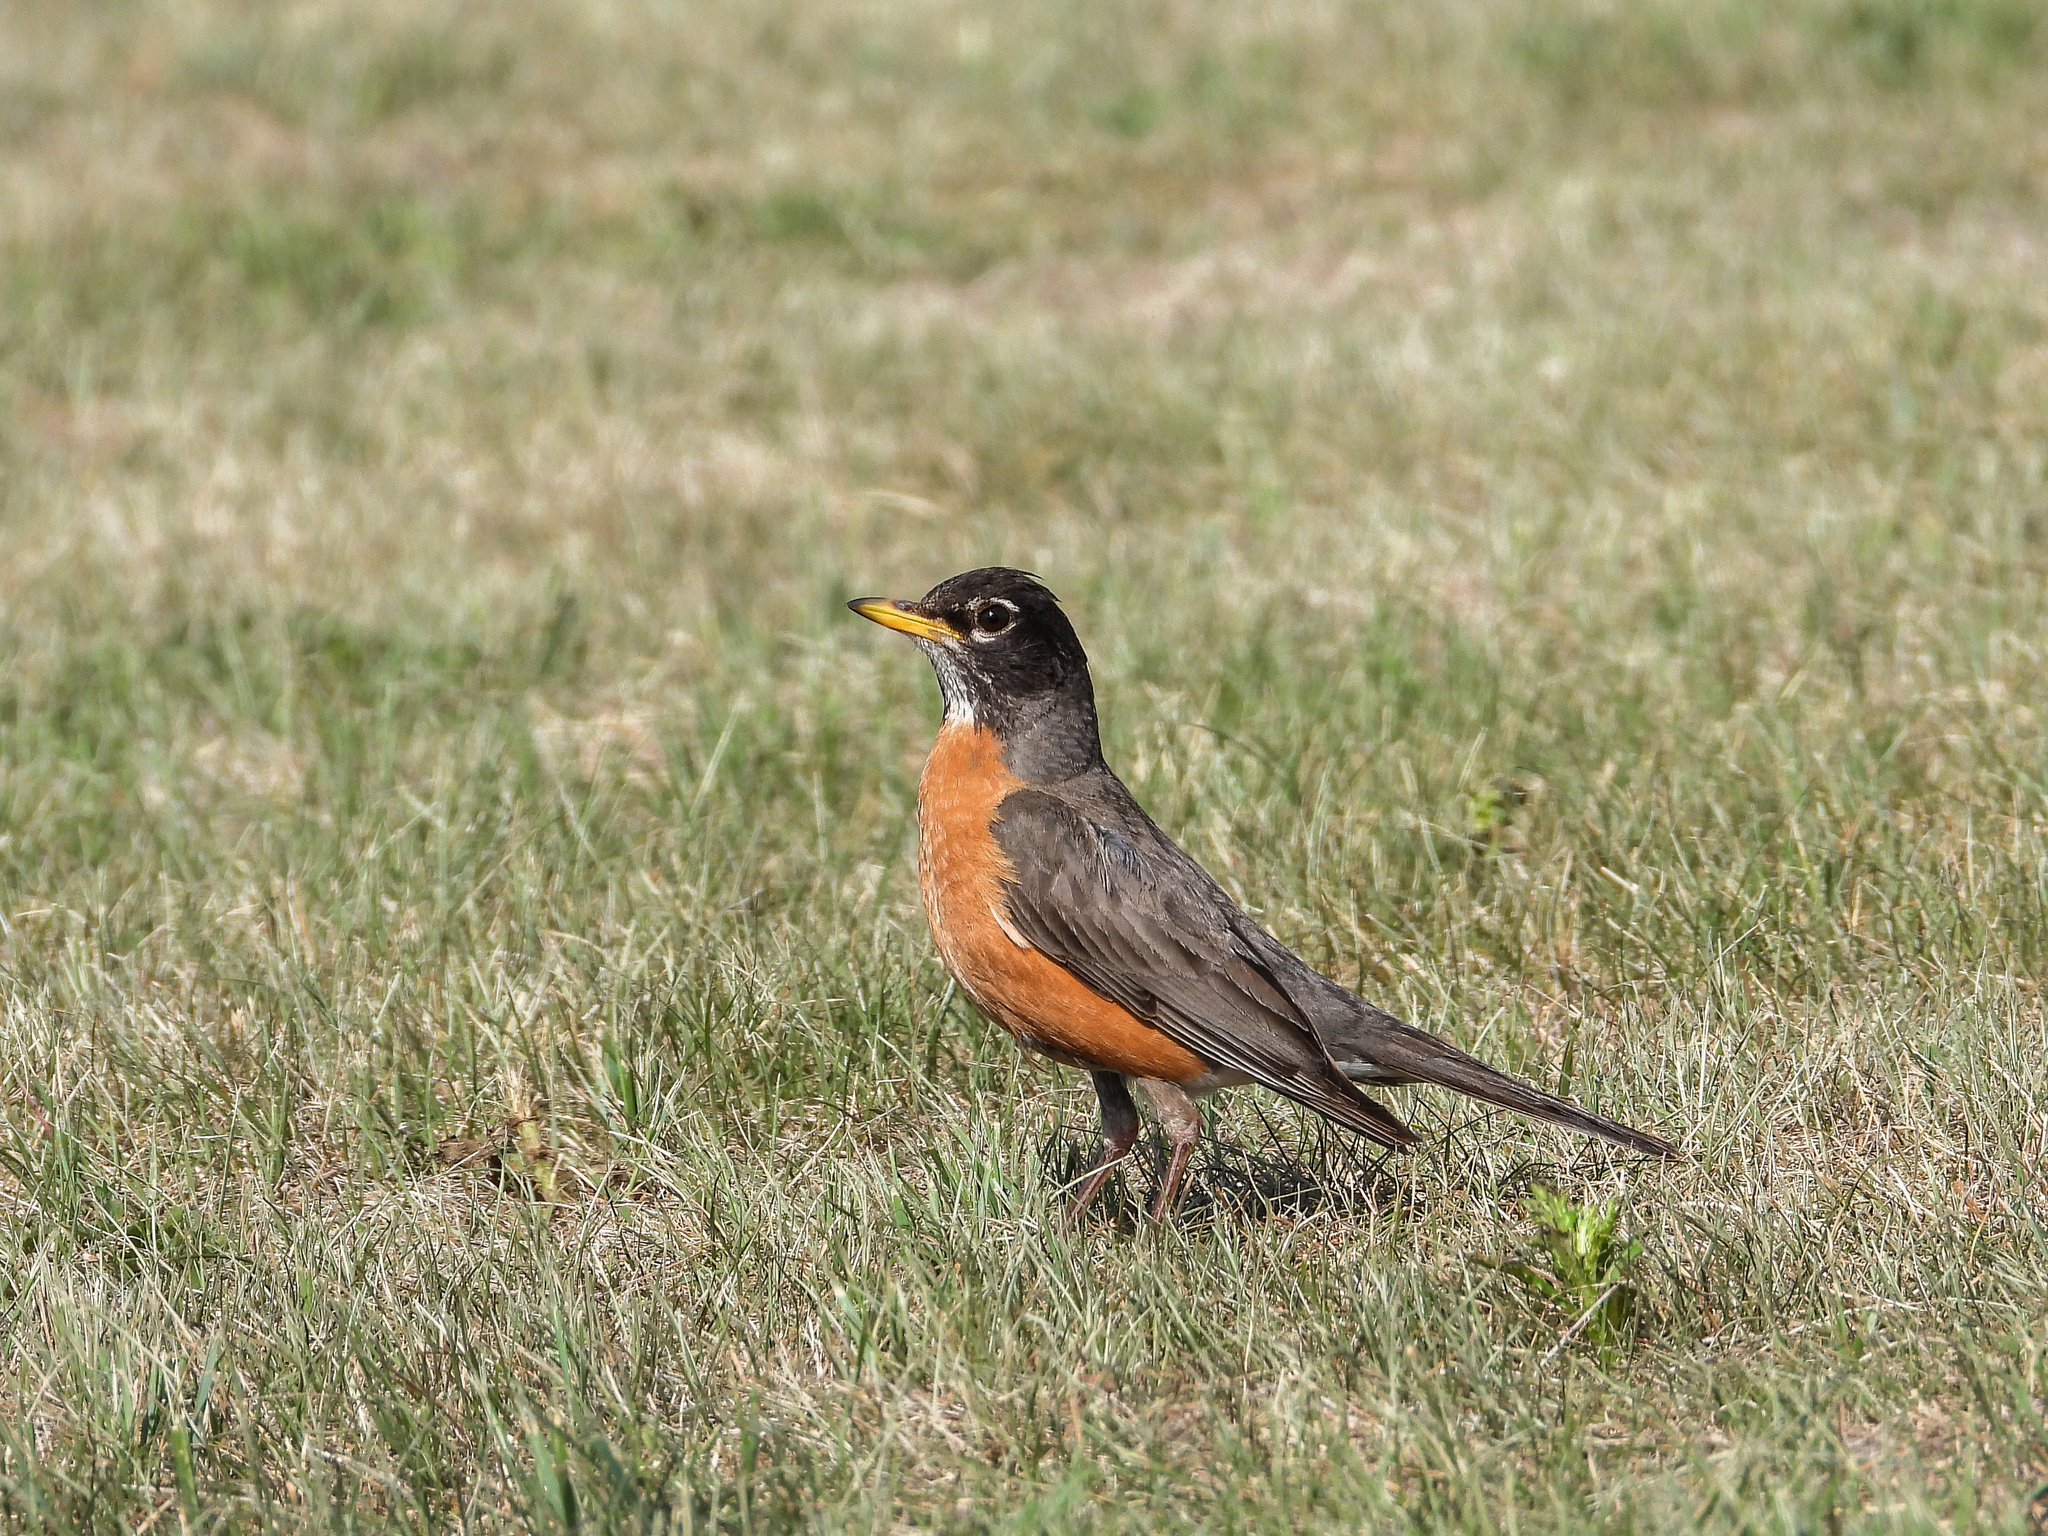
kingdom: Animalia
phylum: Chordata
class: Aves
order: Passeriformes
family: Turdidae
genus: Turdus
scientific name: Turdus migratorius
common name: American robin
